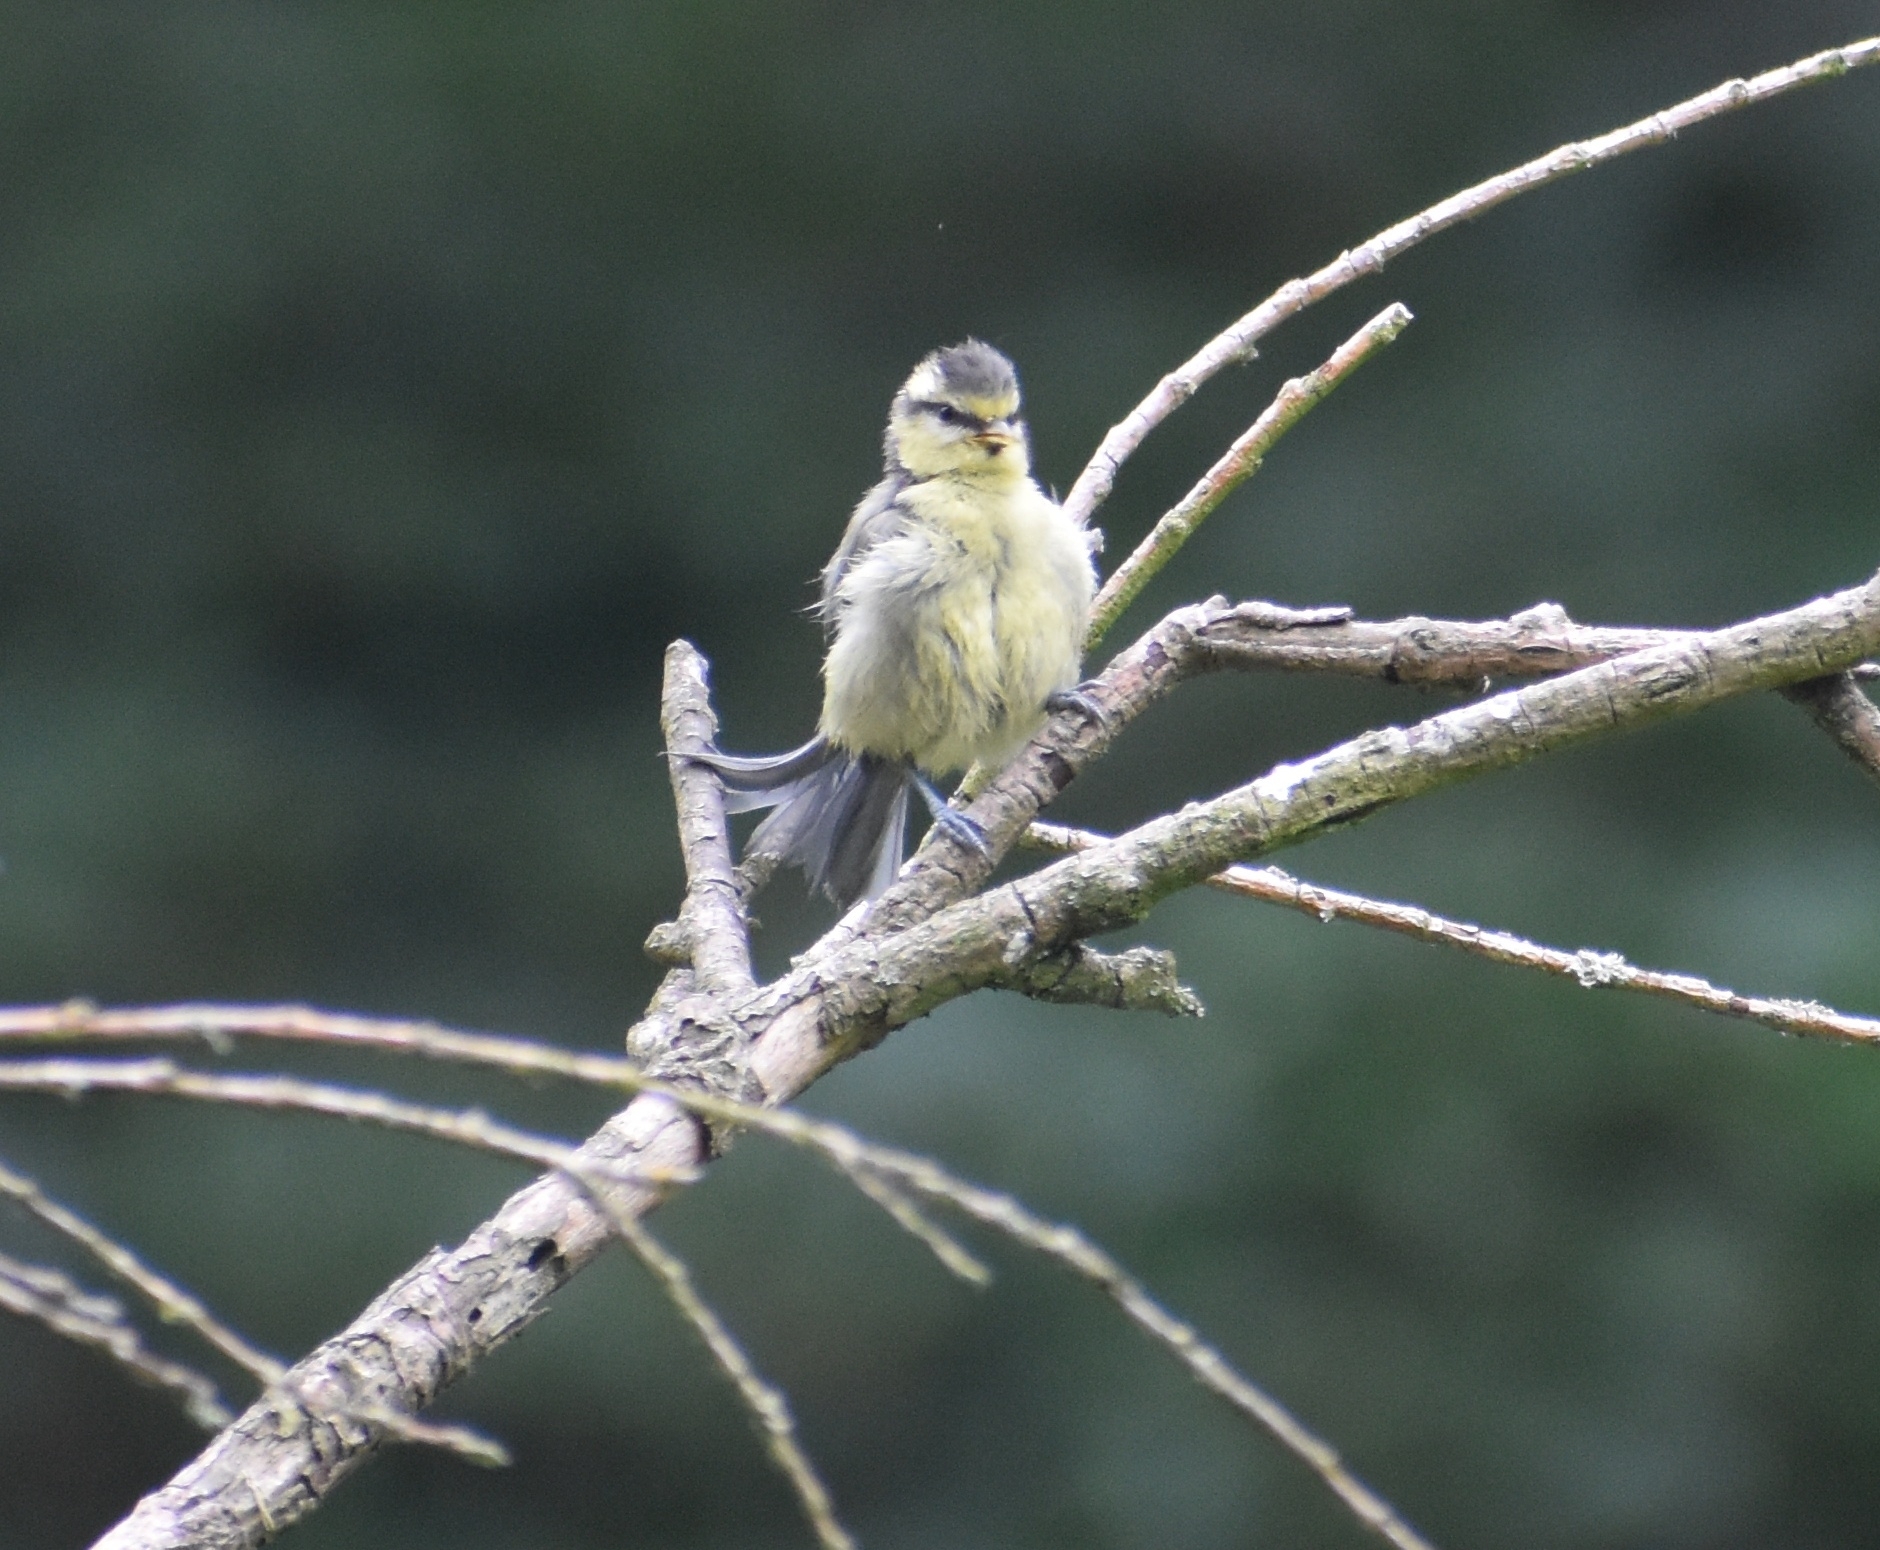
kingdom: Animalia
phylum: Chordata
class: Aves
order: Passeriformes
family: Paridae
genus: Cyanistes
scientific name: Cyanistes caeruleus
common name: Eurasian blue tit
